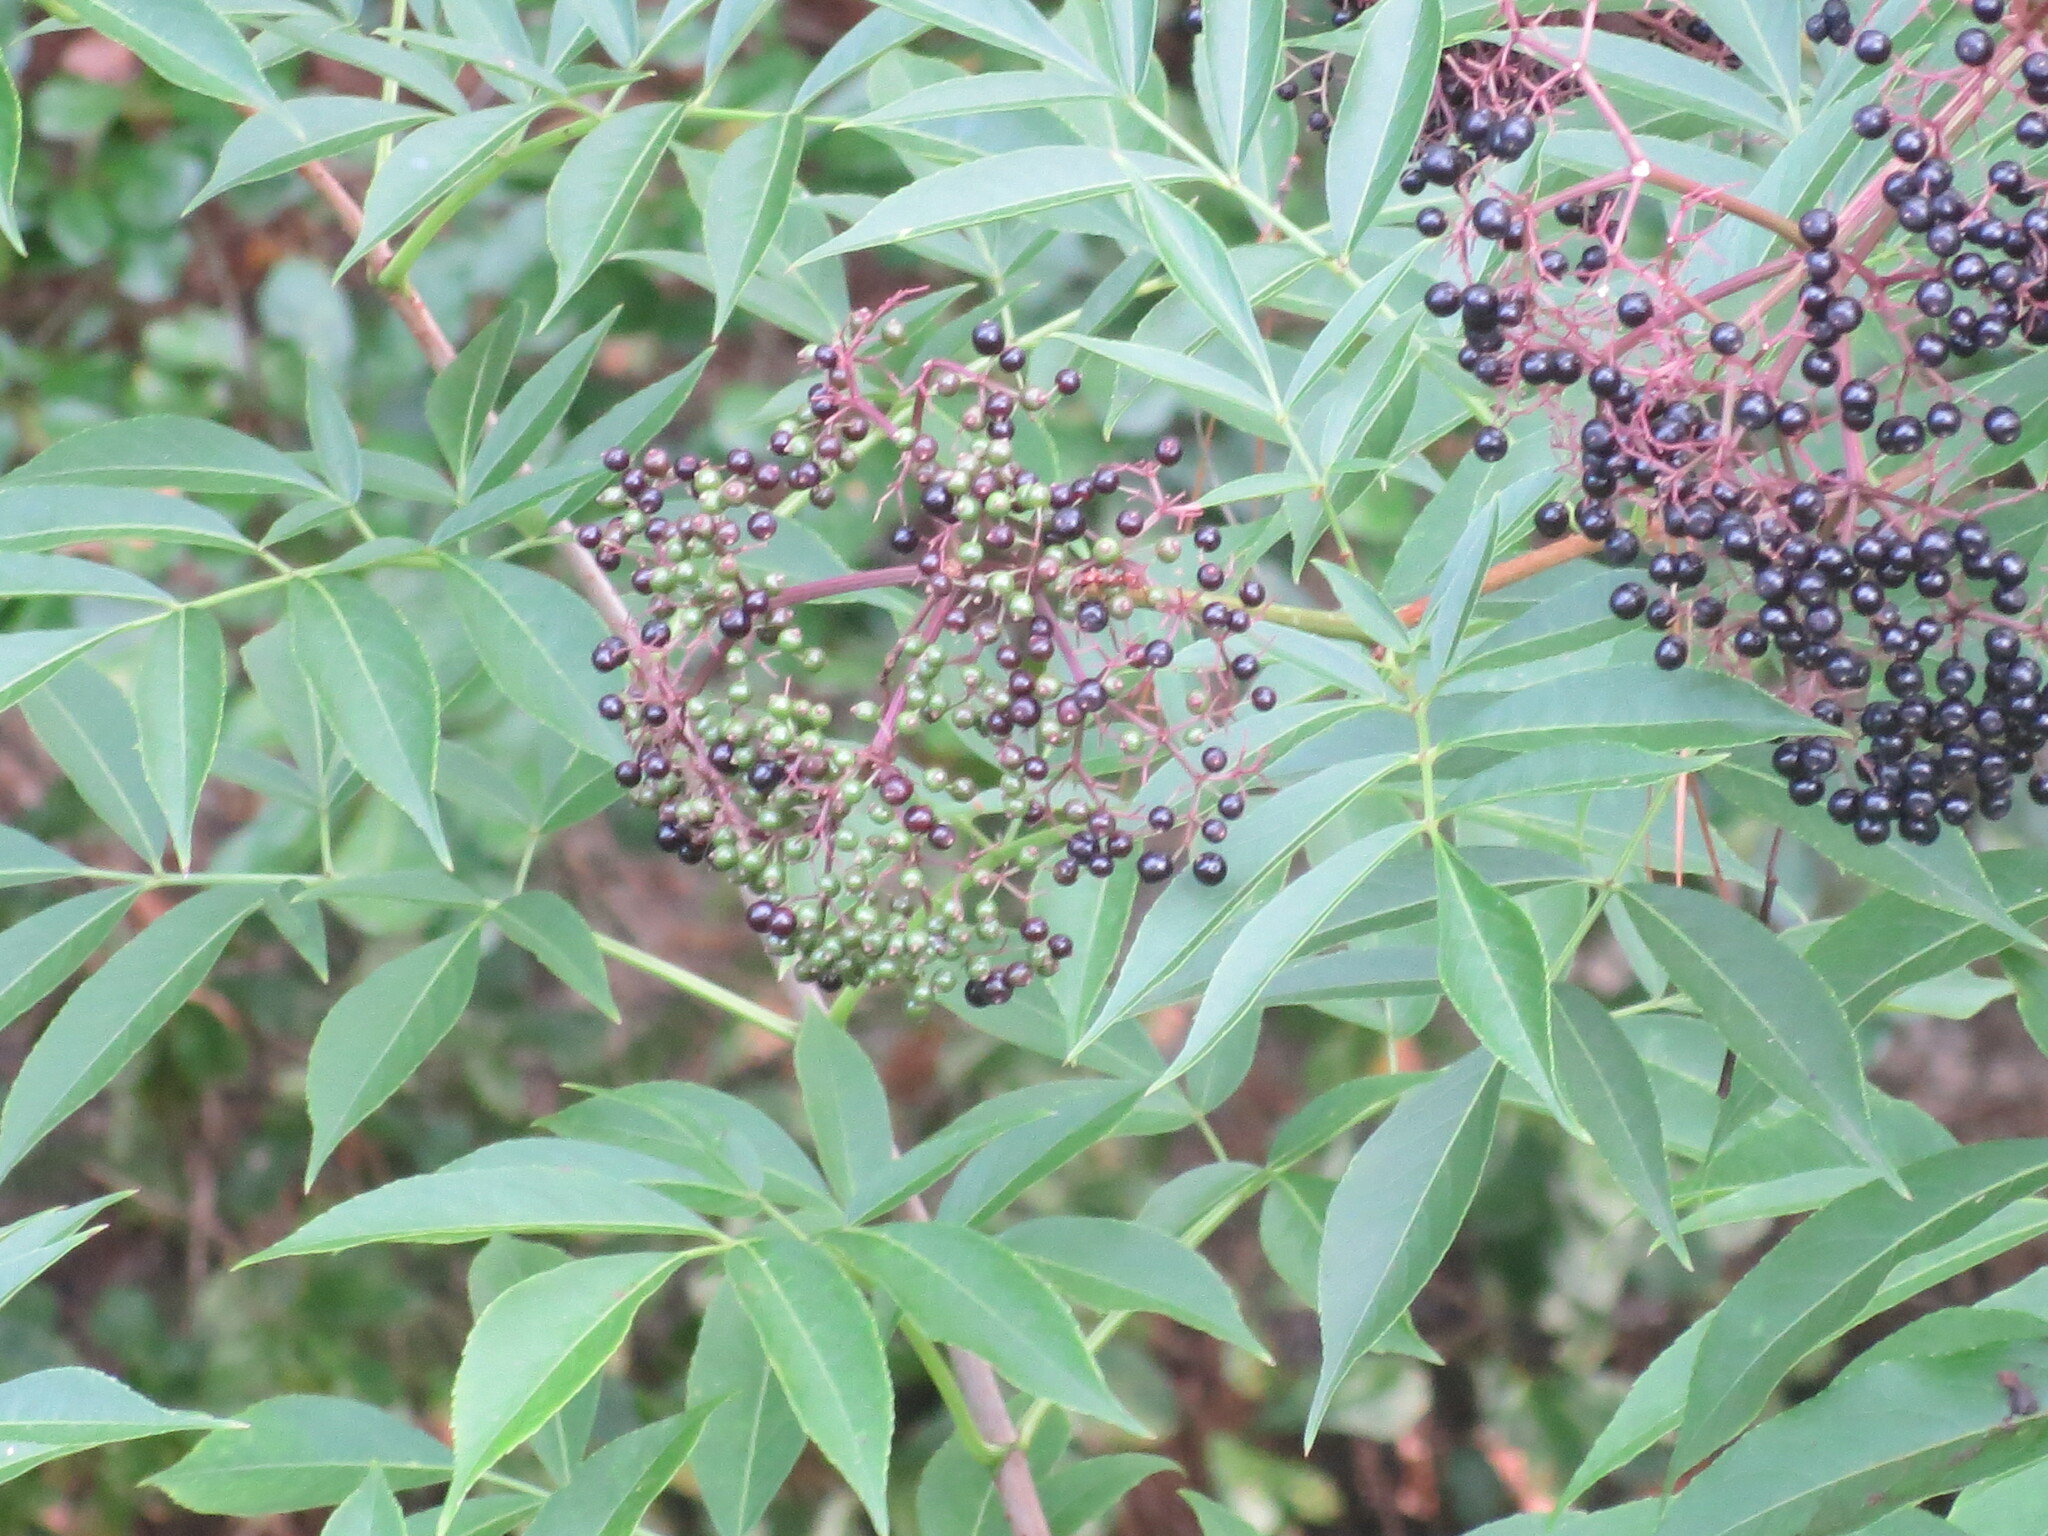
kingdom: Plantae
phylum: Tracheophyta
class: Magnoliopsida
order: Dipsacales
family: Viburnaceae
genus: Sambucus
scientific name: Sambucus canadensis
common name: American elder
